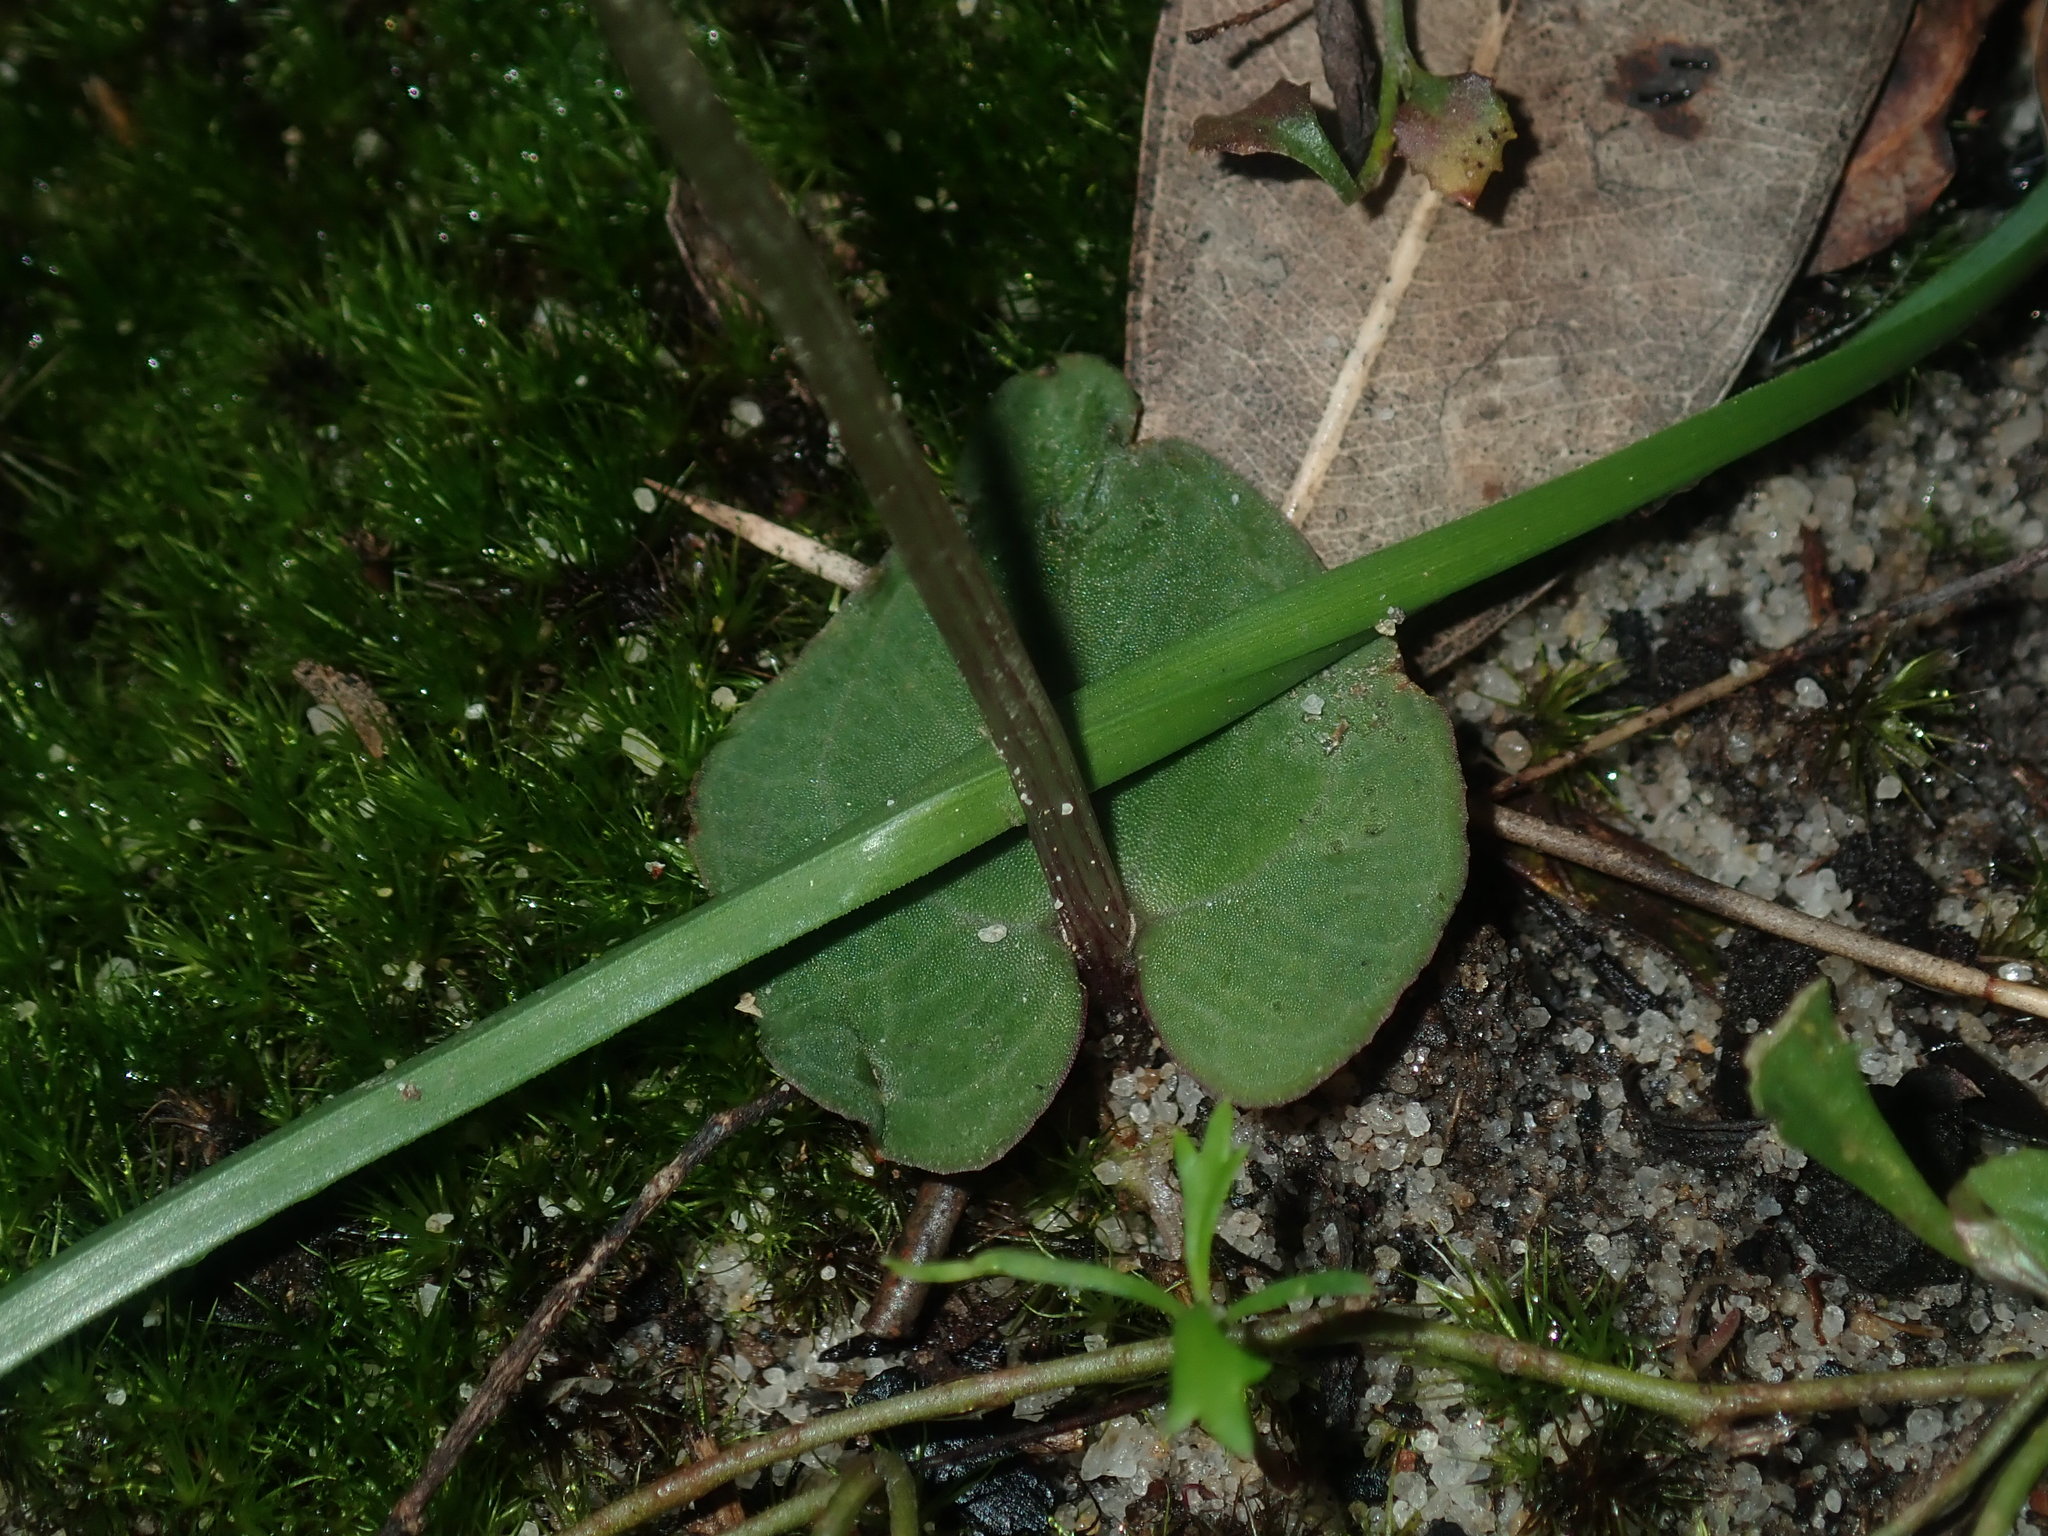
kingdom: Plantae
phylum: Tracheophyta
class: Liliopsida
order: Asparagales
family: Orchidaceae
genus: Acianthus
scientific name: Acianthus fornicatus
